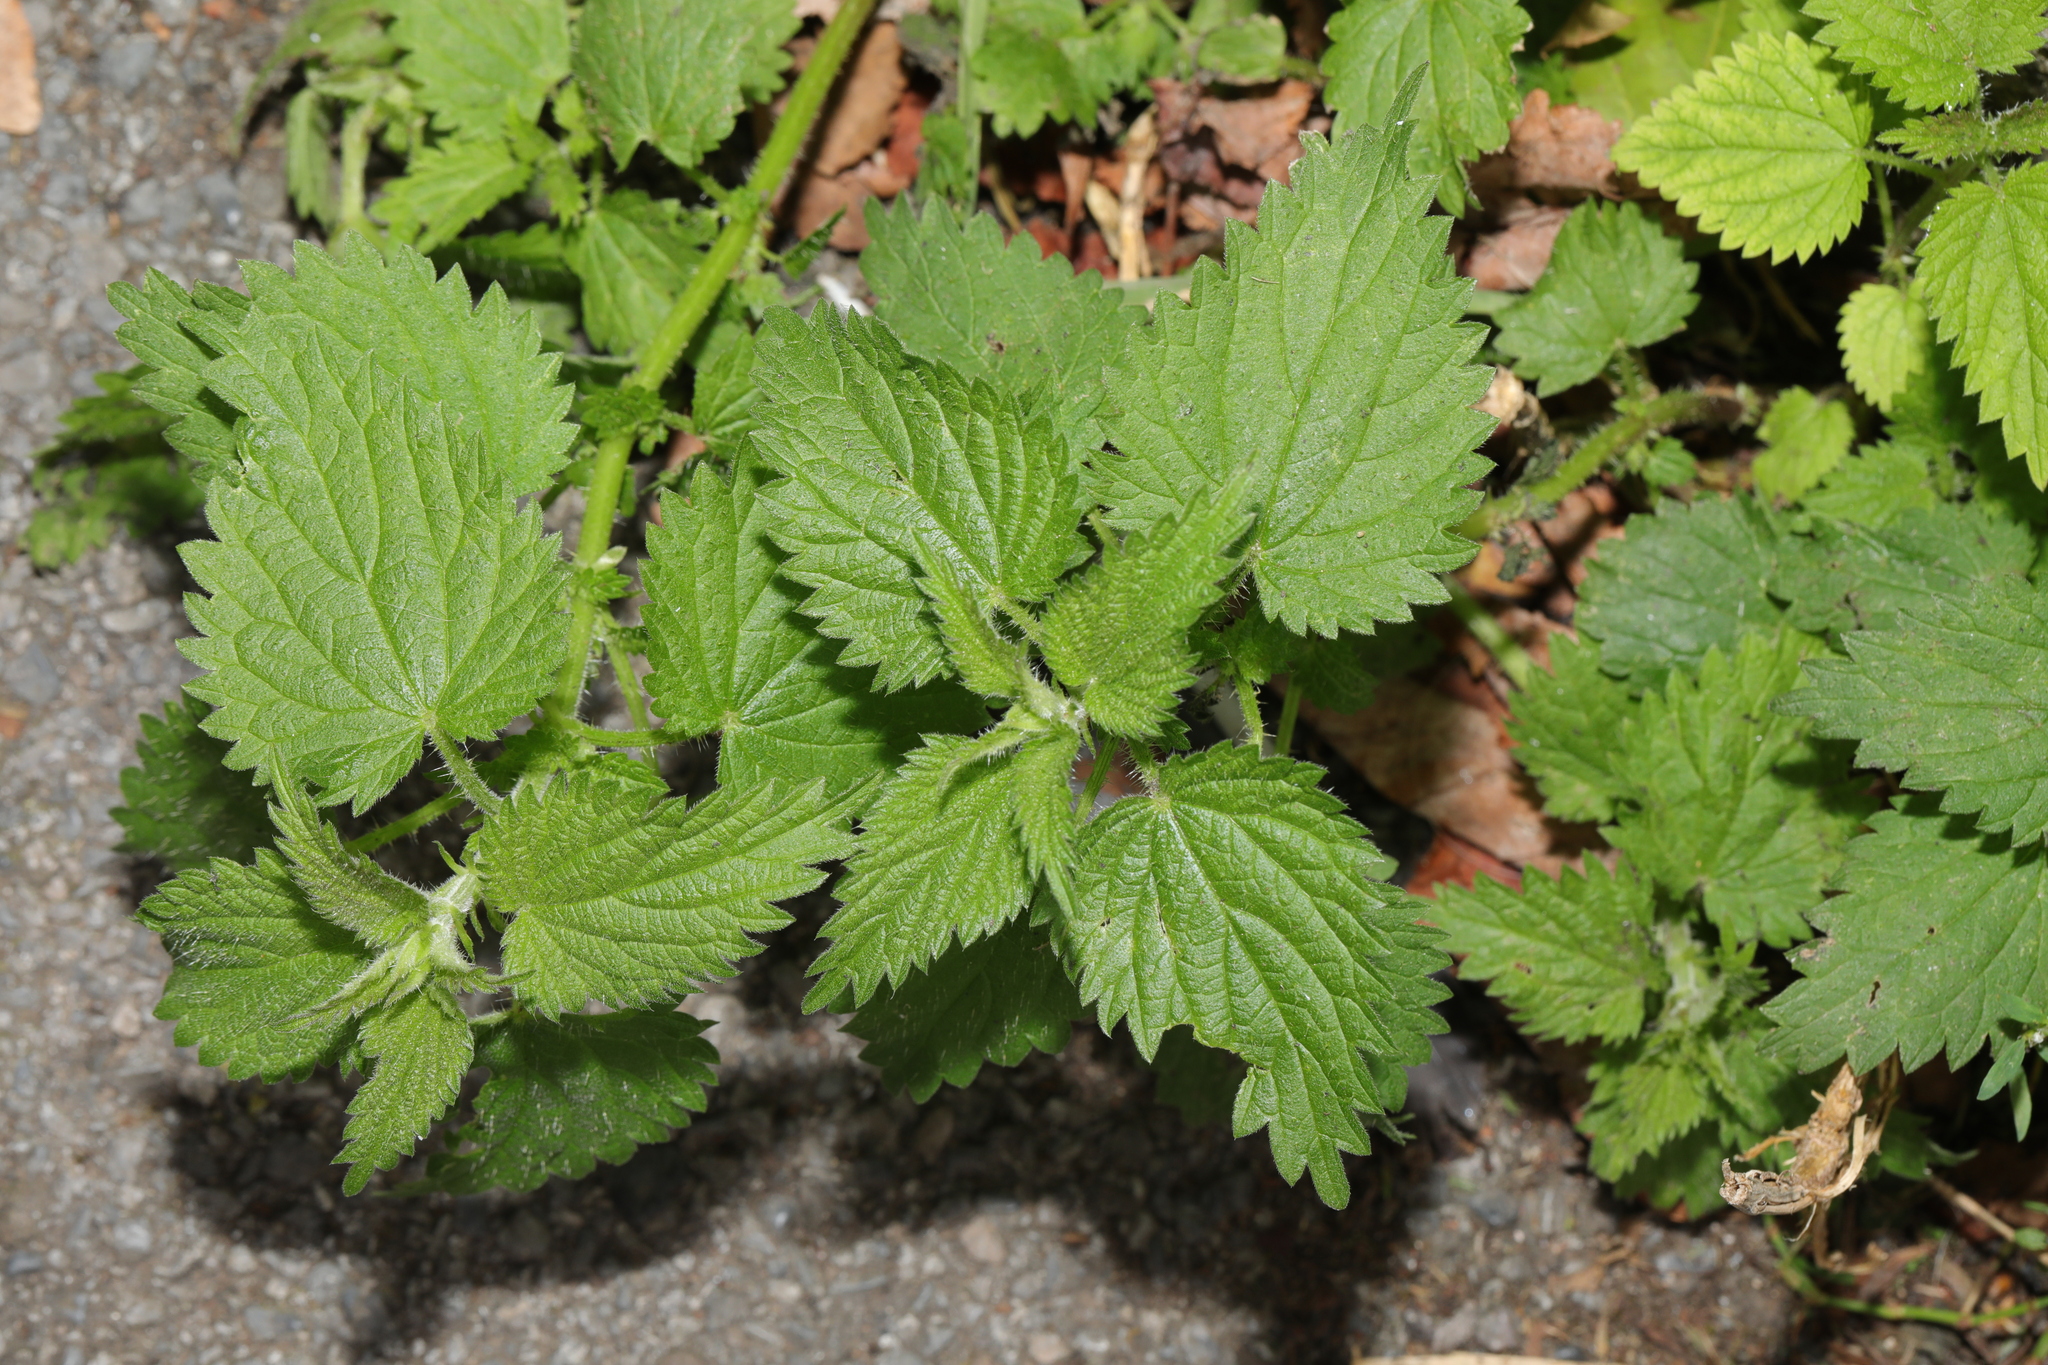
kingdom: Plantae
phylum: Tracheophyta
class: Magnoliopsida
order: Rosales
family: Urticaceae
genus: Urtica
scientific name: Urtica dioica
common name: Common nettle
